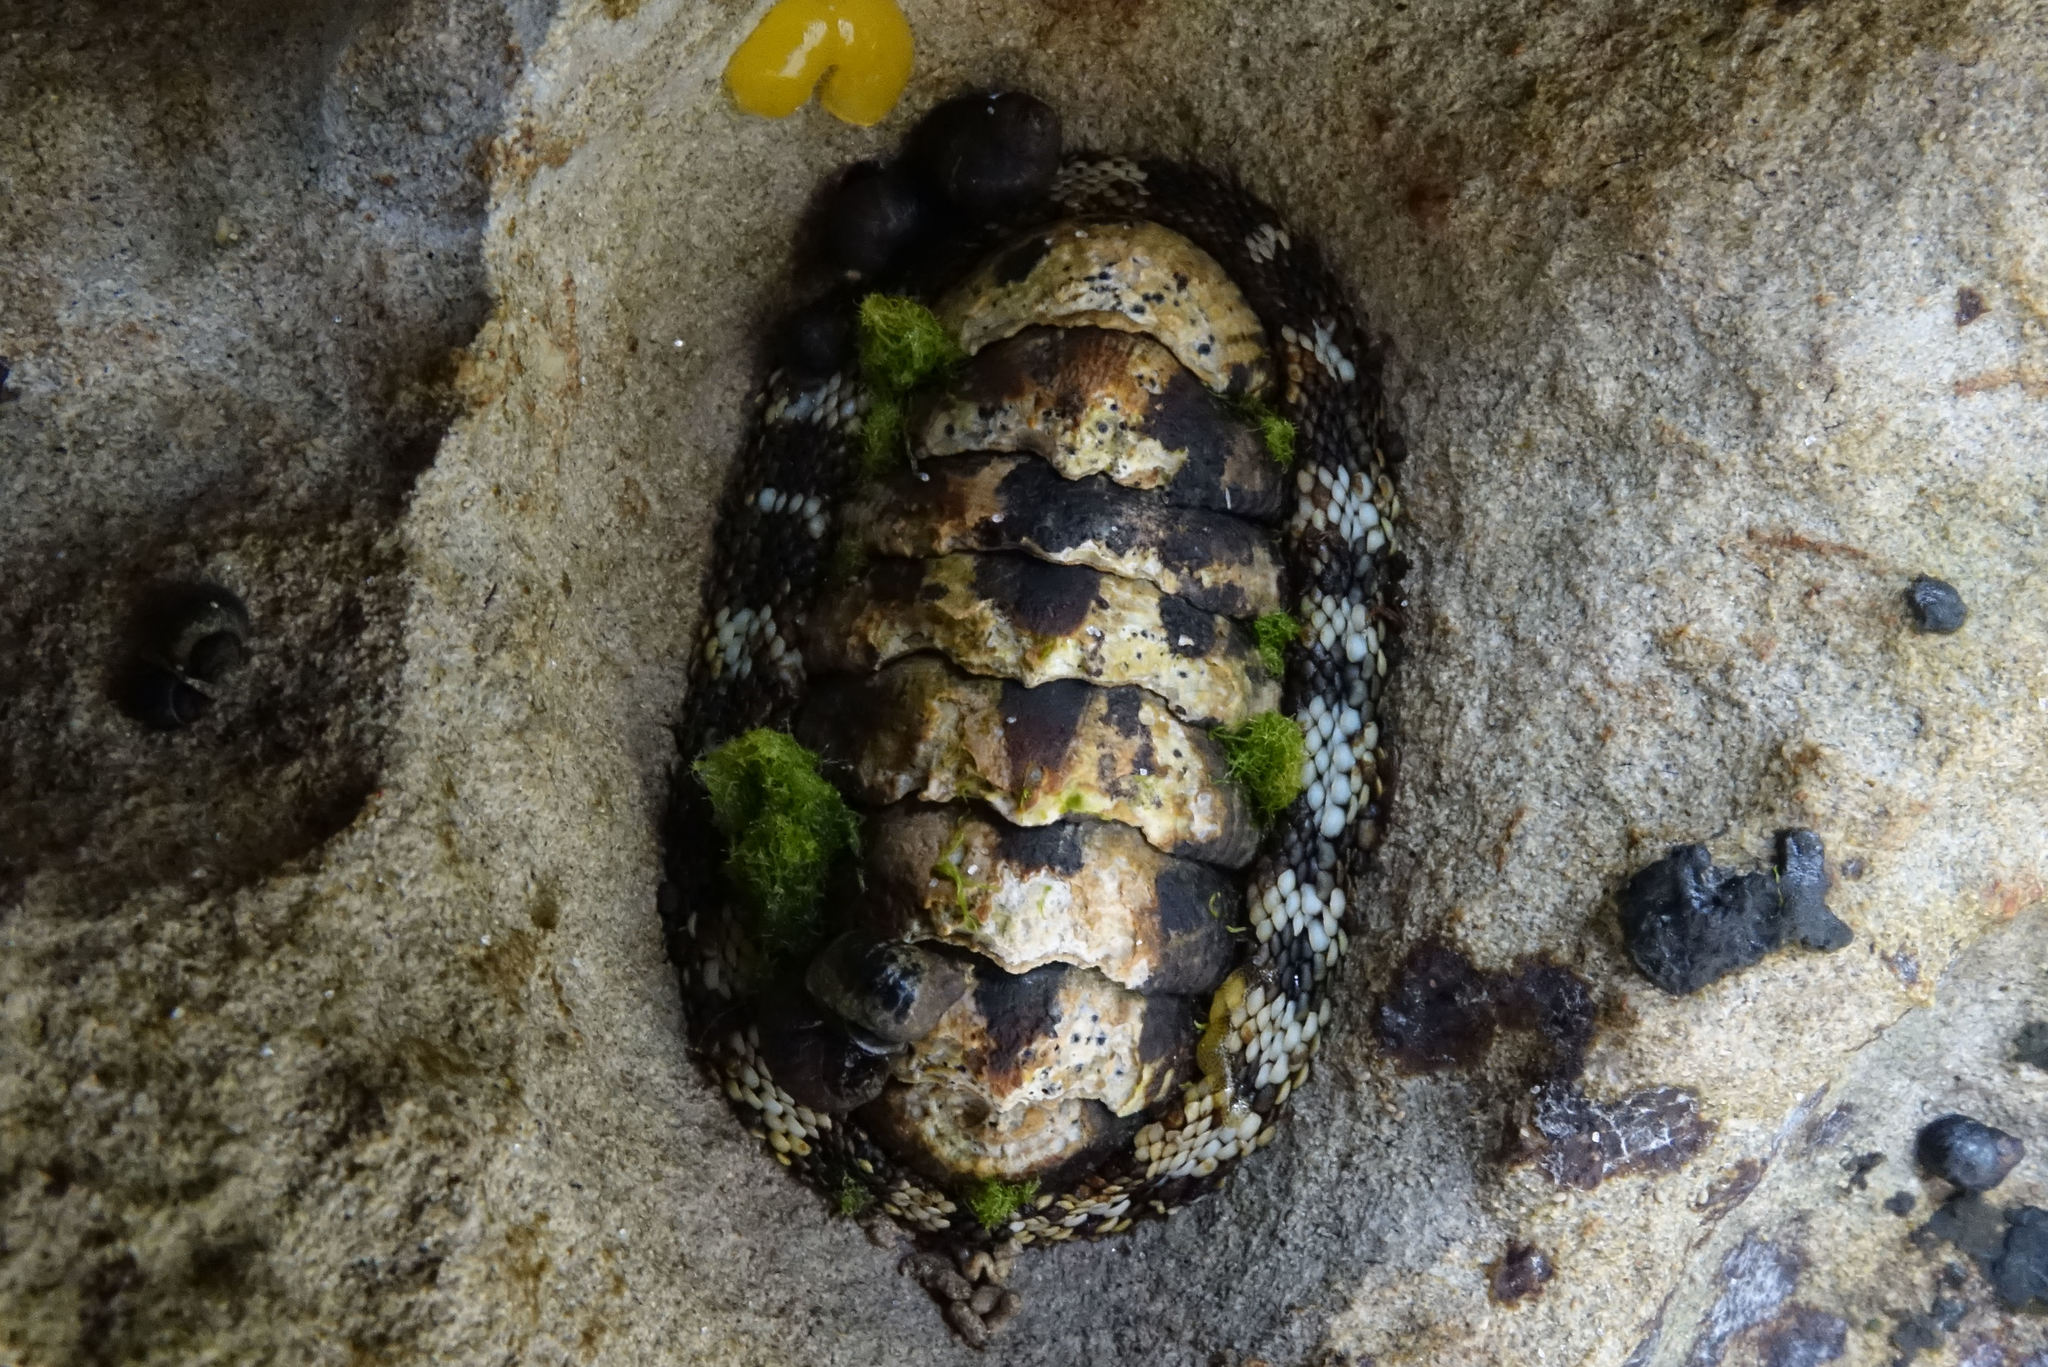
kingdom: Animalia
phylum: Mollusca
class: Polyplacophora
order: Chitonida
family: Chitonidae
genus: Sypharochiton
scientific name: Sypharochiton pelliserpentis
